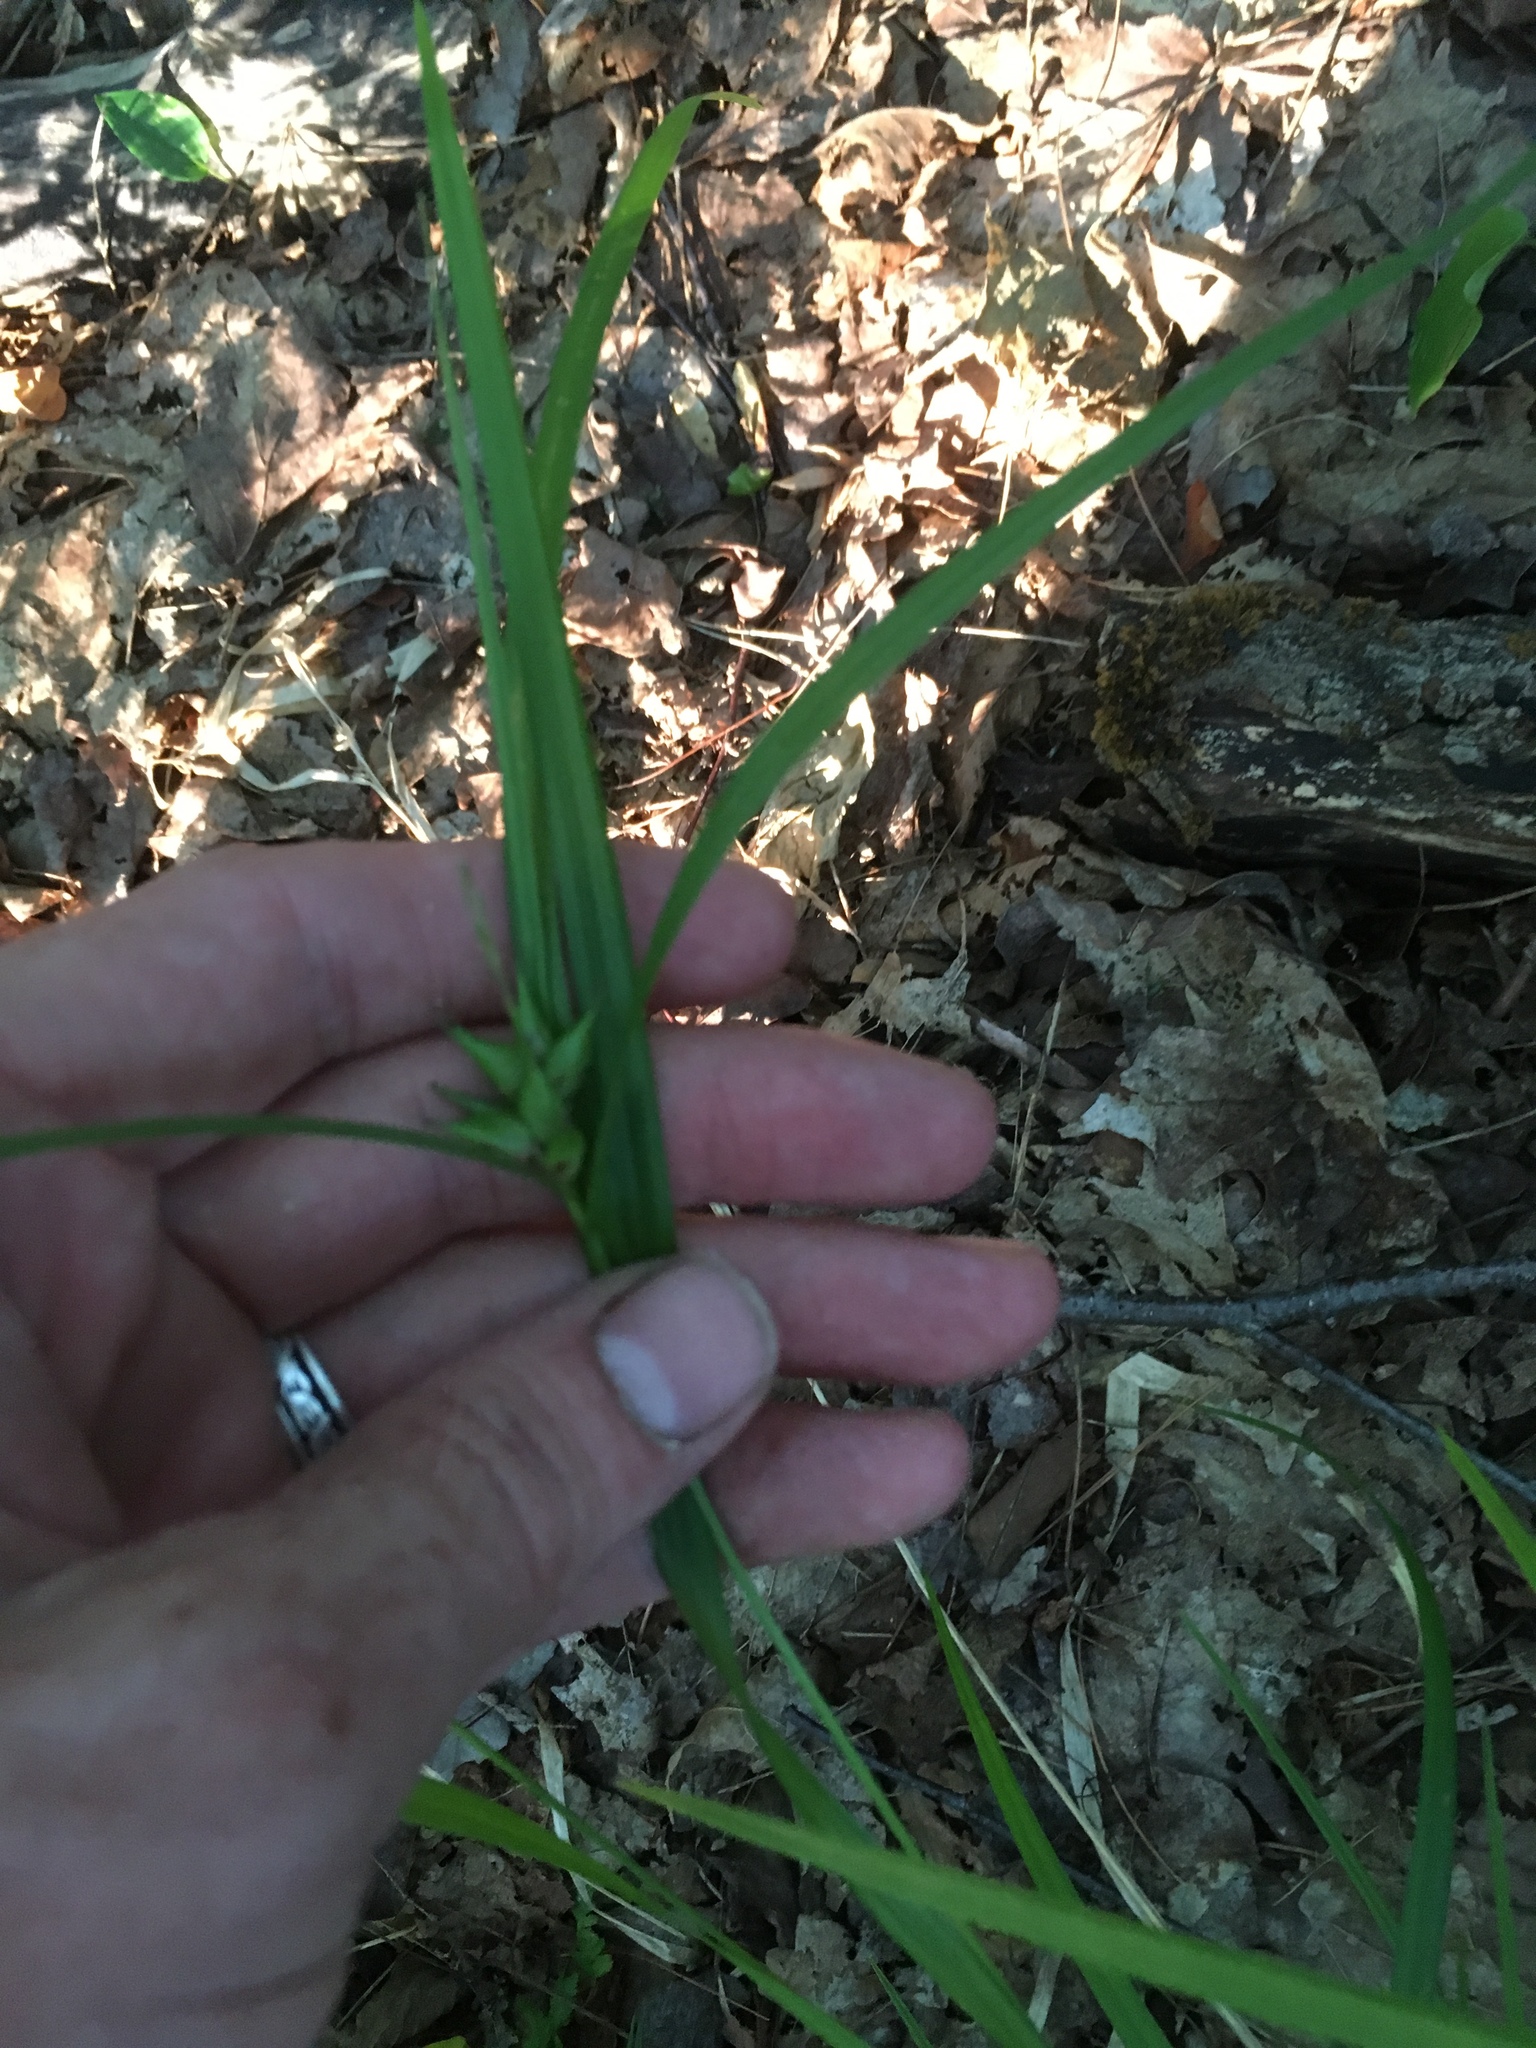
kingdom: Plantae
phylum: Tracheophyta
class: Liliopsida
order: Poales
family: Cyperaceae
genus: Carex
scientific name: Carex intumescens
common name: Greater bladder sedge
